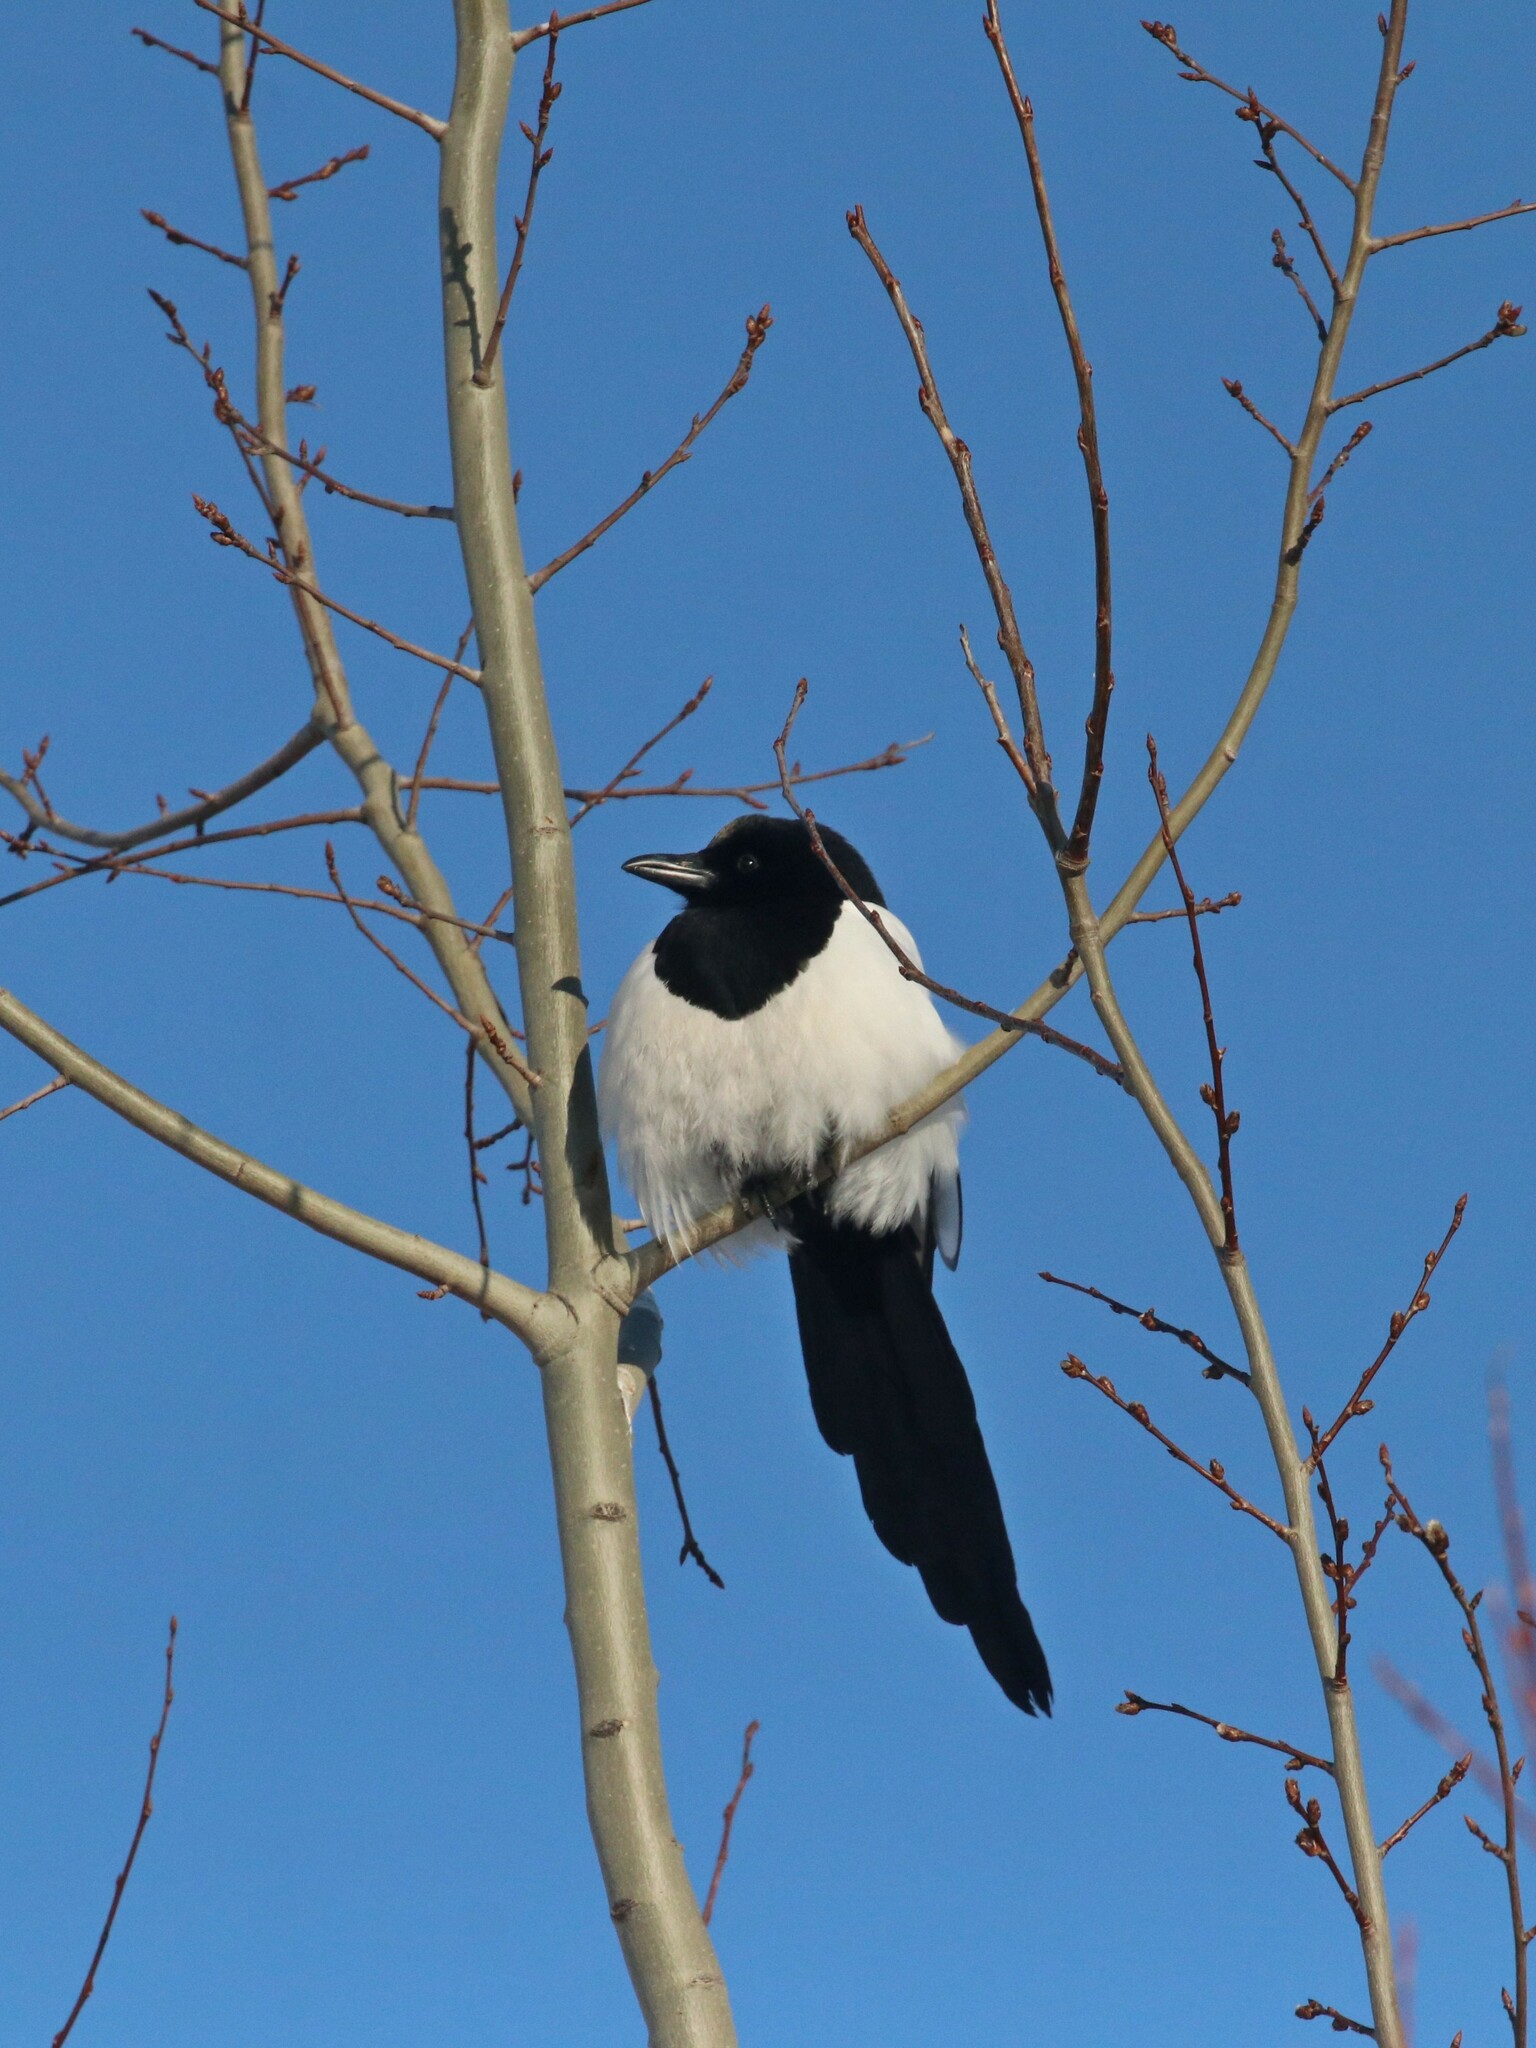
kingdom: Animalia
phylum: Chordata
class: Aves
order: Passeriformes
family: Corvidae
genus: Pica
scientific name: Pica pica
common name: Eurasian magpie
